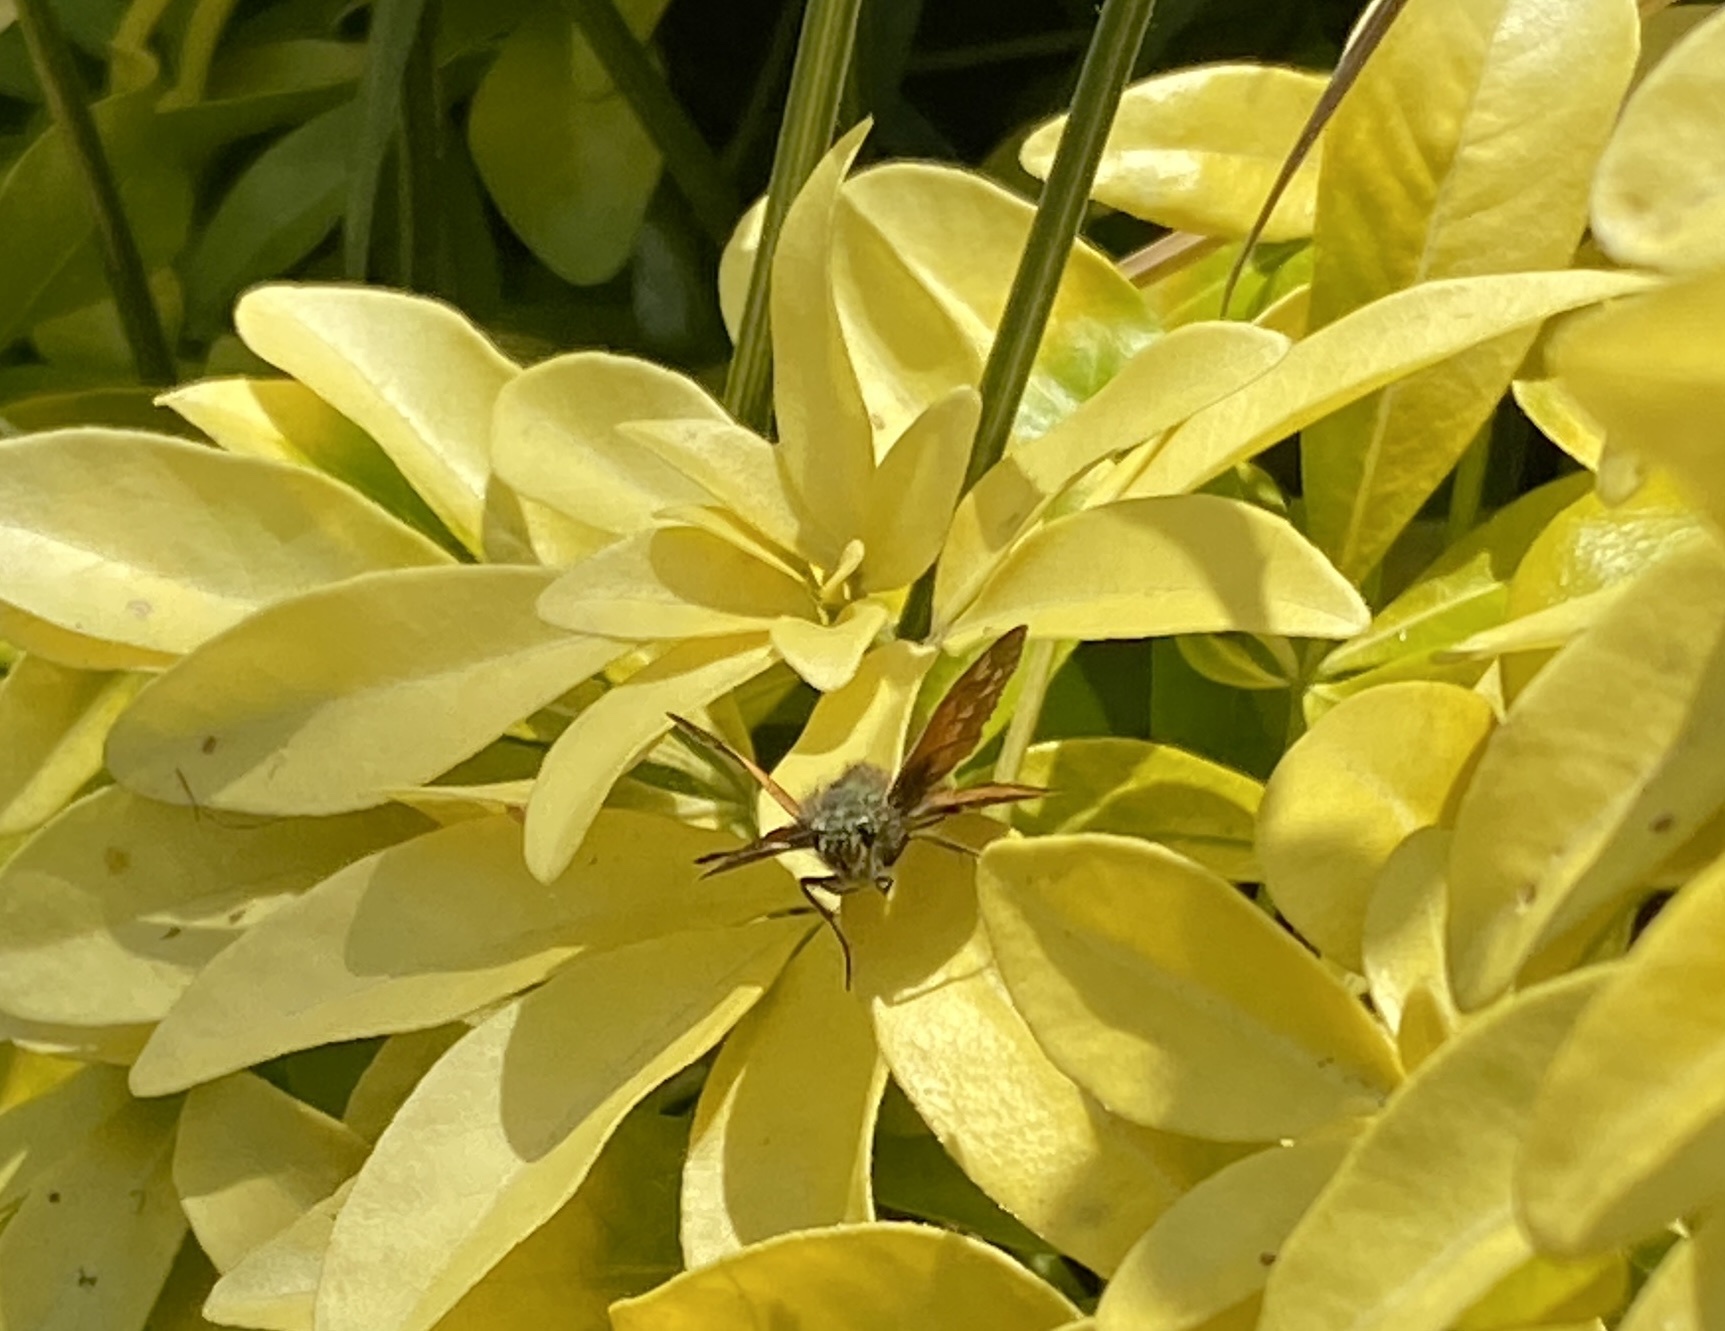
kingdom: Animalia
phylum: Arthropoda
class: Insecta
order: Lepidoptera
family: Hesperiidae
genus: Ochlodes
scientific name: Ochlodes venata
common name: Large skipper
